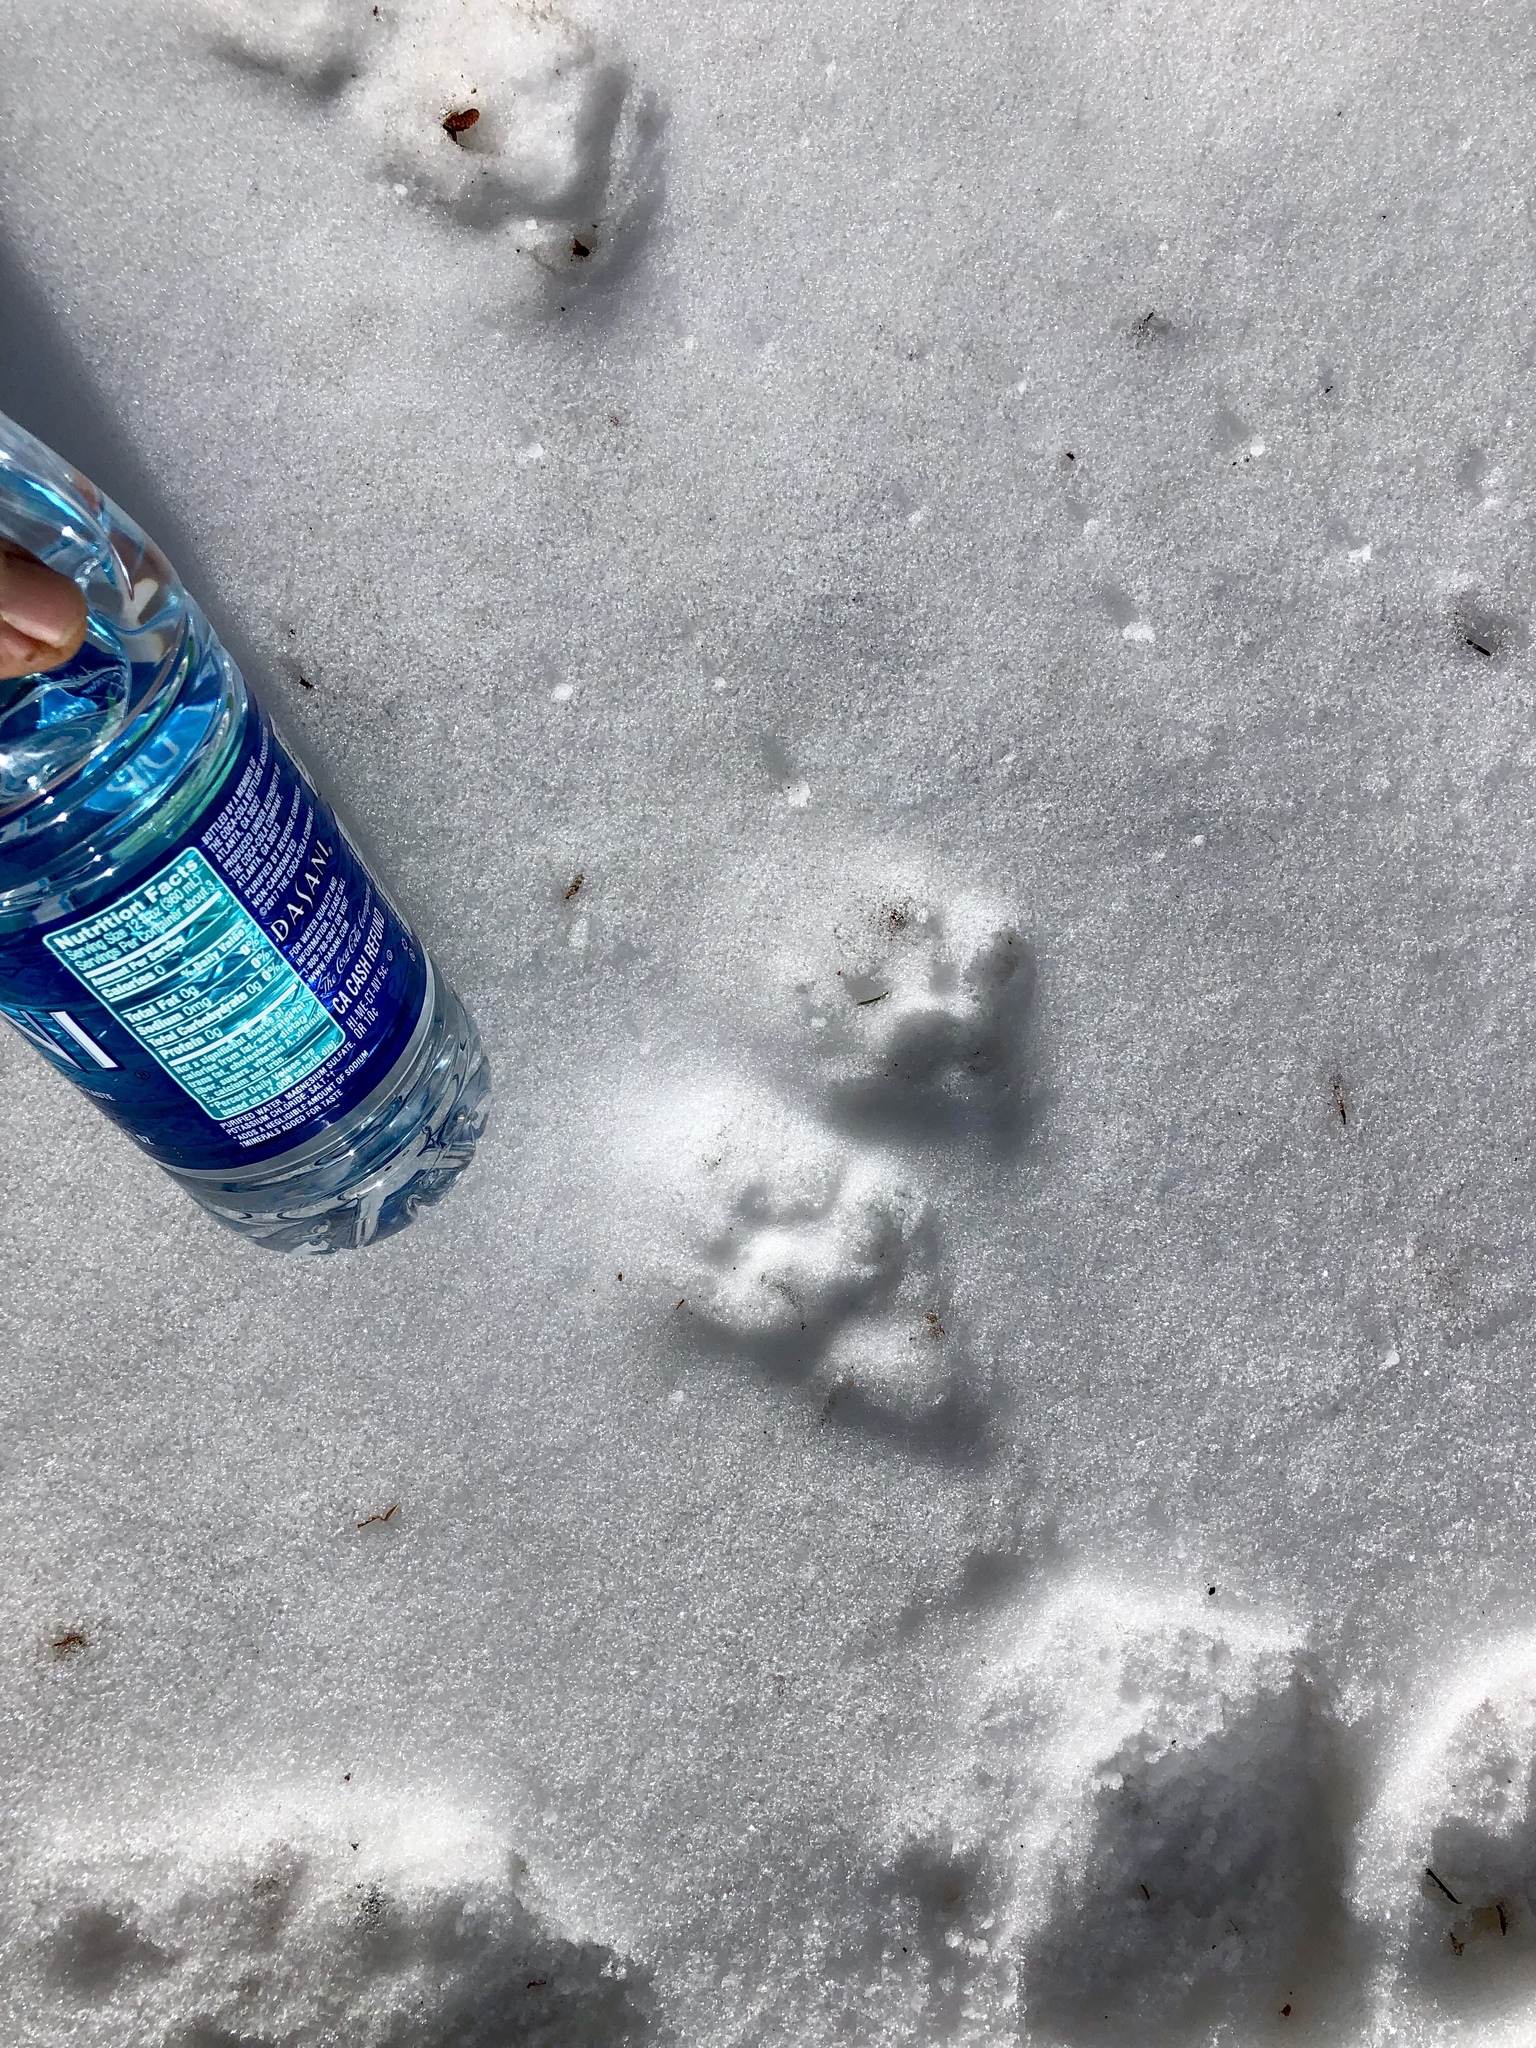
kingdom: Animalia
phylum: Chordata
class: Mammalia
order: Carnivora
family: Procyonidae
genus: Procyon
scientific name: Procyon lotor
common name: Raccoon
